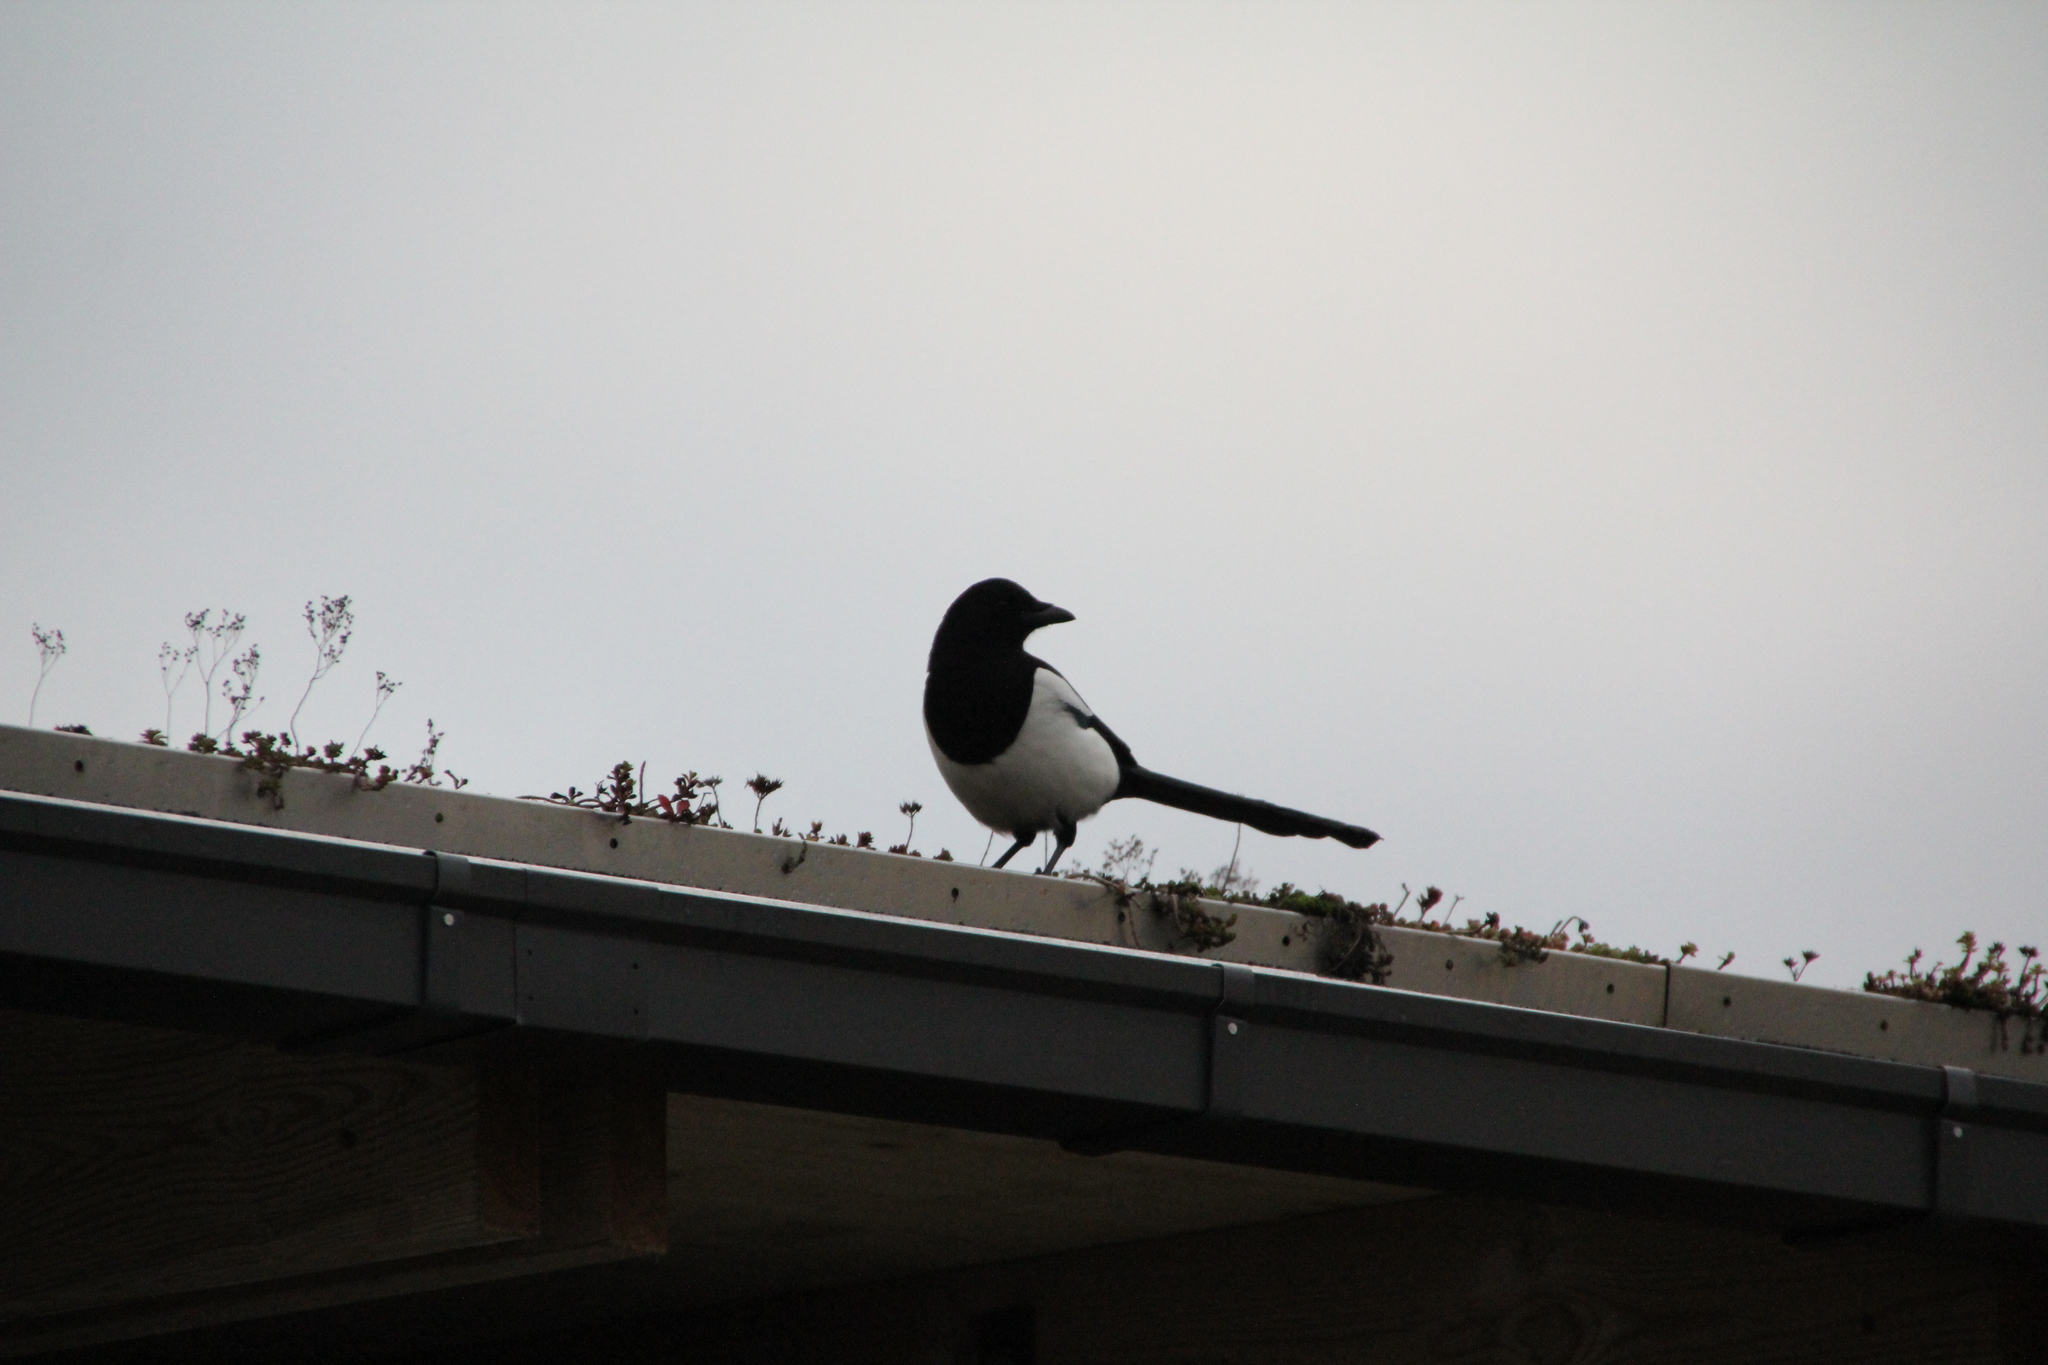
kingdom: Animalia
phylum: Chordata
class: Aves
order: Passeriformes
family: Corvidae
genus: Pica
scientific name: Pica pica
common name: Eurasian magpie
